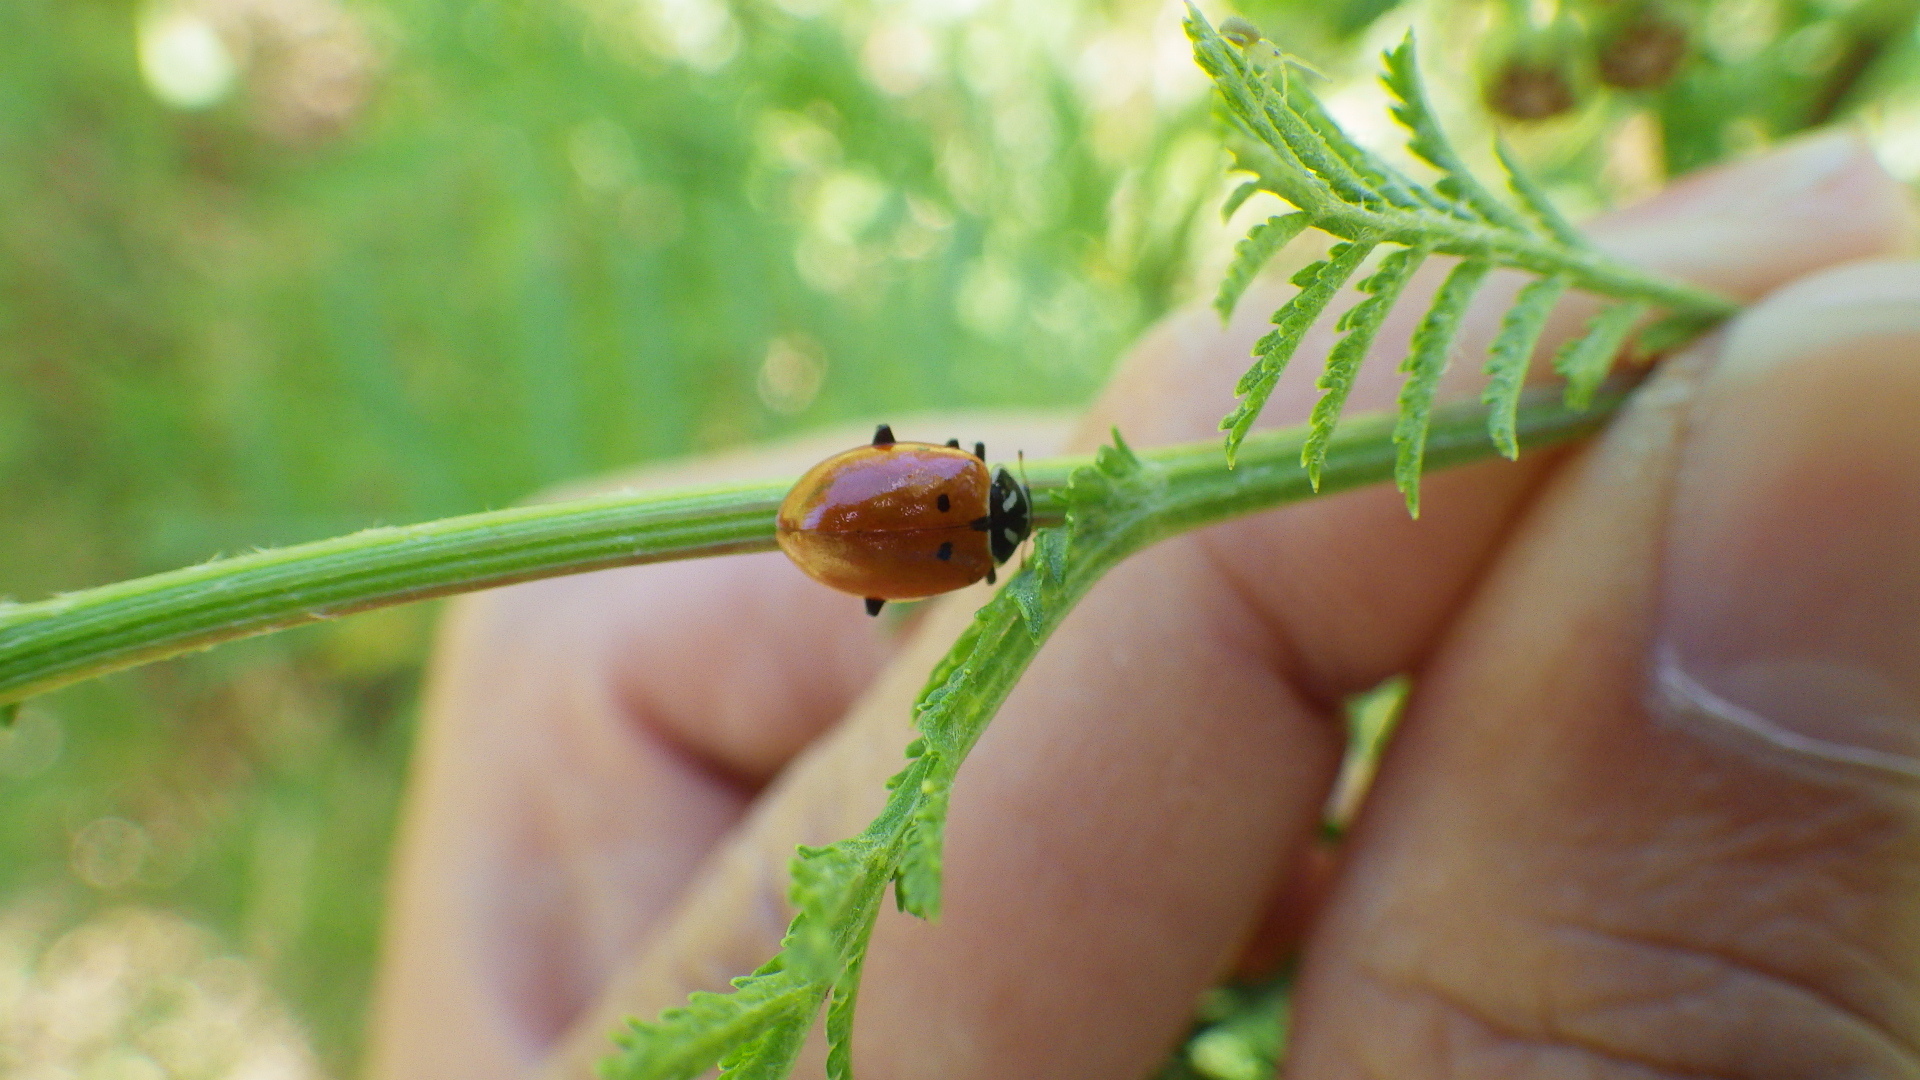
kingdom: Animalia
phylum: Arthropoda
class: Insecta
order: Coleoptera
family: Coccinellidae
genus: Hippodamia
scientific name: Hippodamia convergens
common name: Convergent lady beetle
